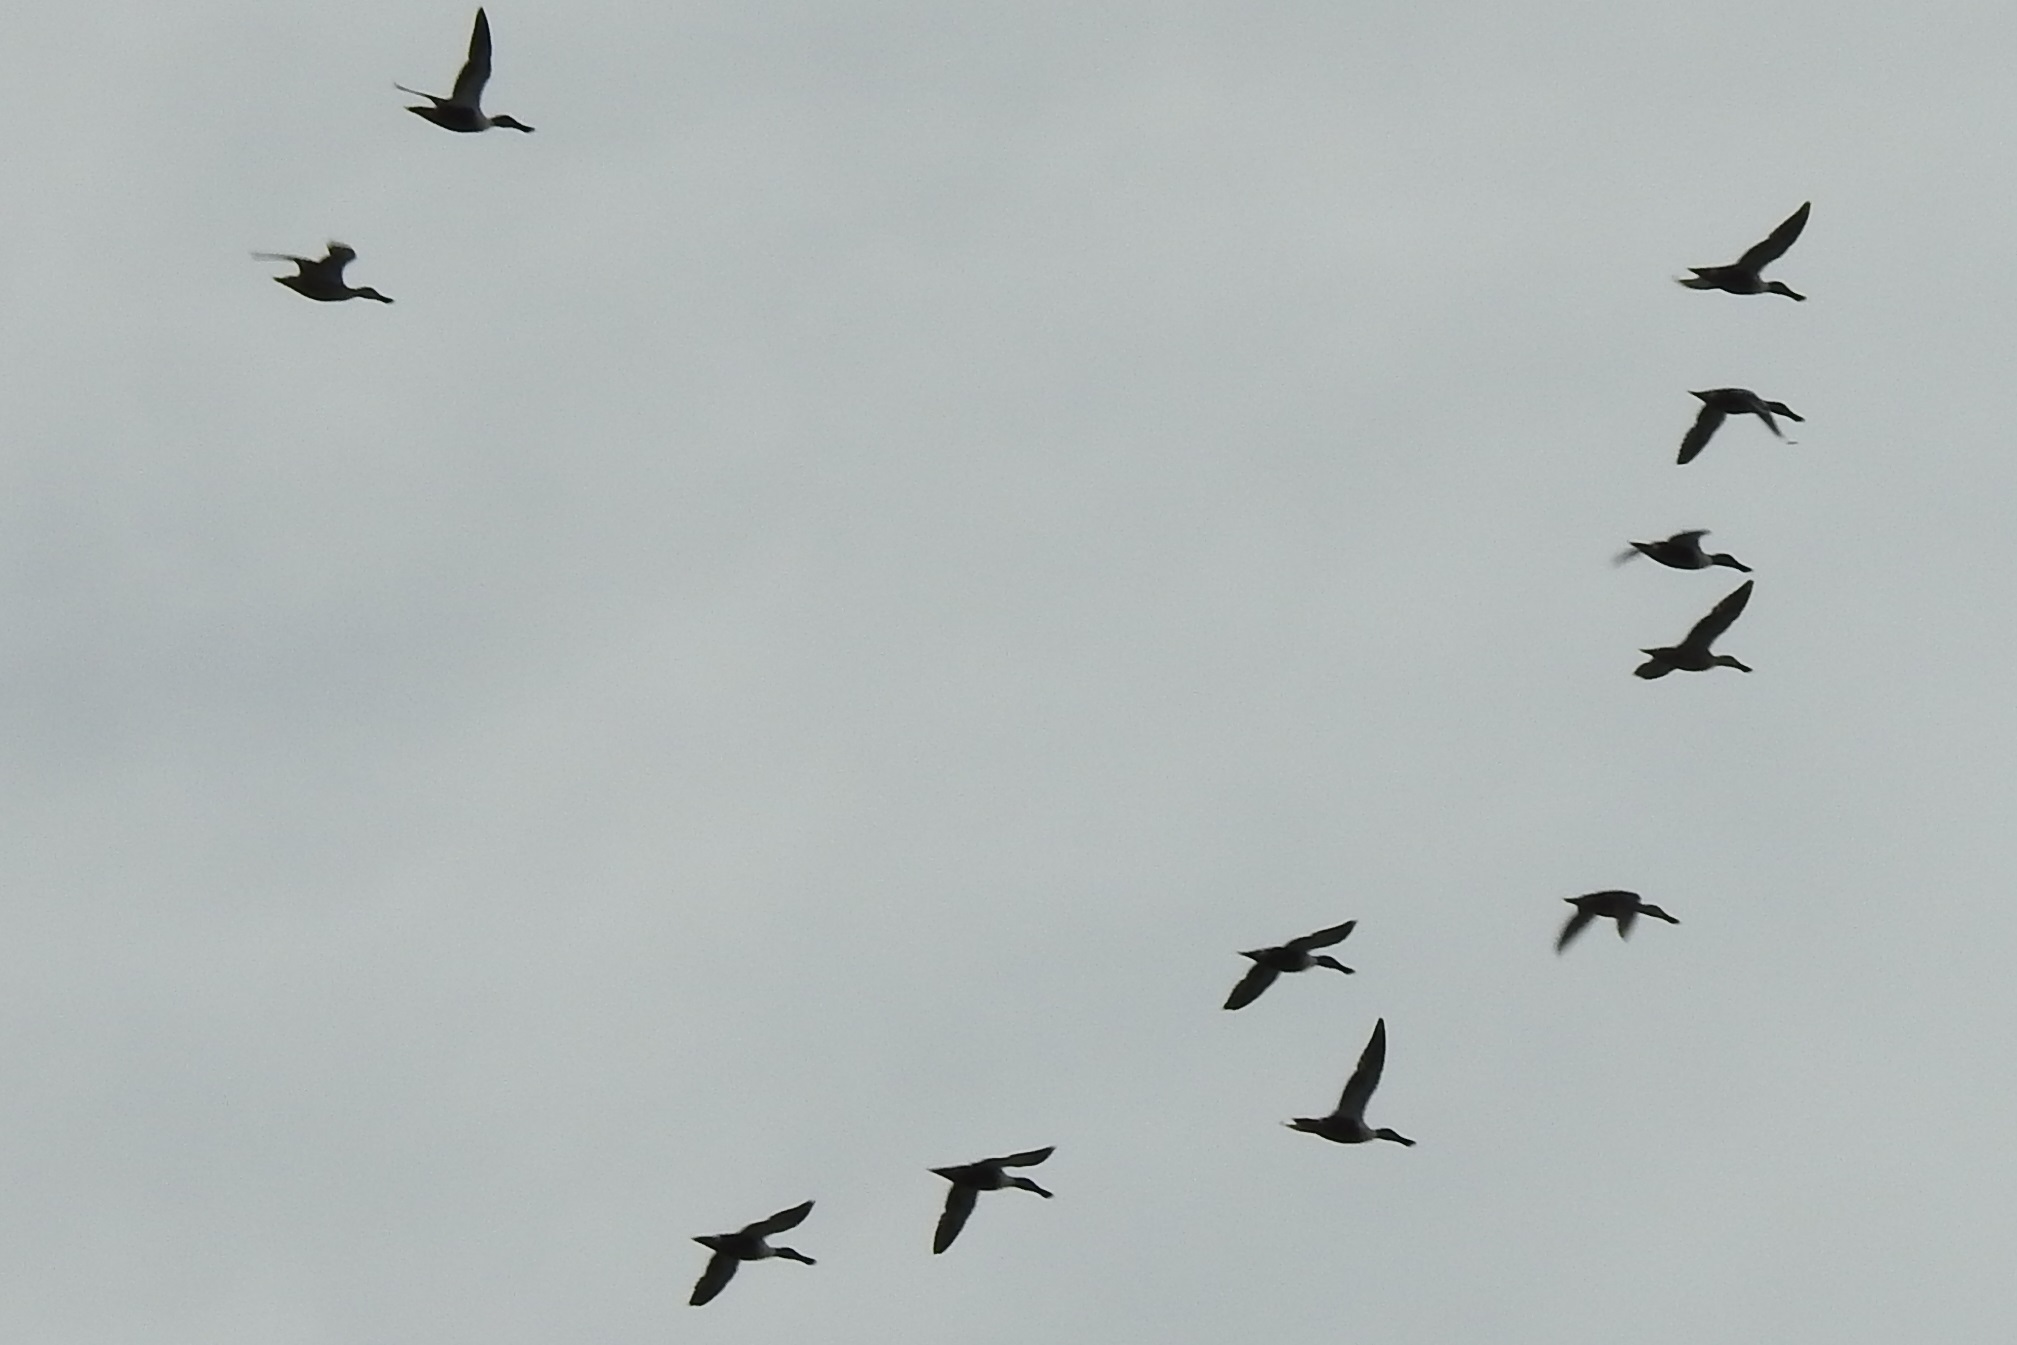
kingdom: Animalia
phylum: Chordata
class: Aves
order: Anseriformes
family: Anatidae
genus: Spatula
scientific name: Spatula clypeata
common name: Northern shoveler
